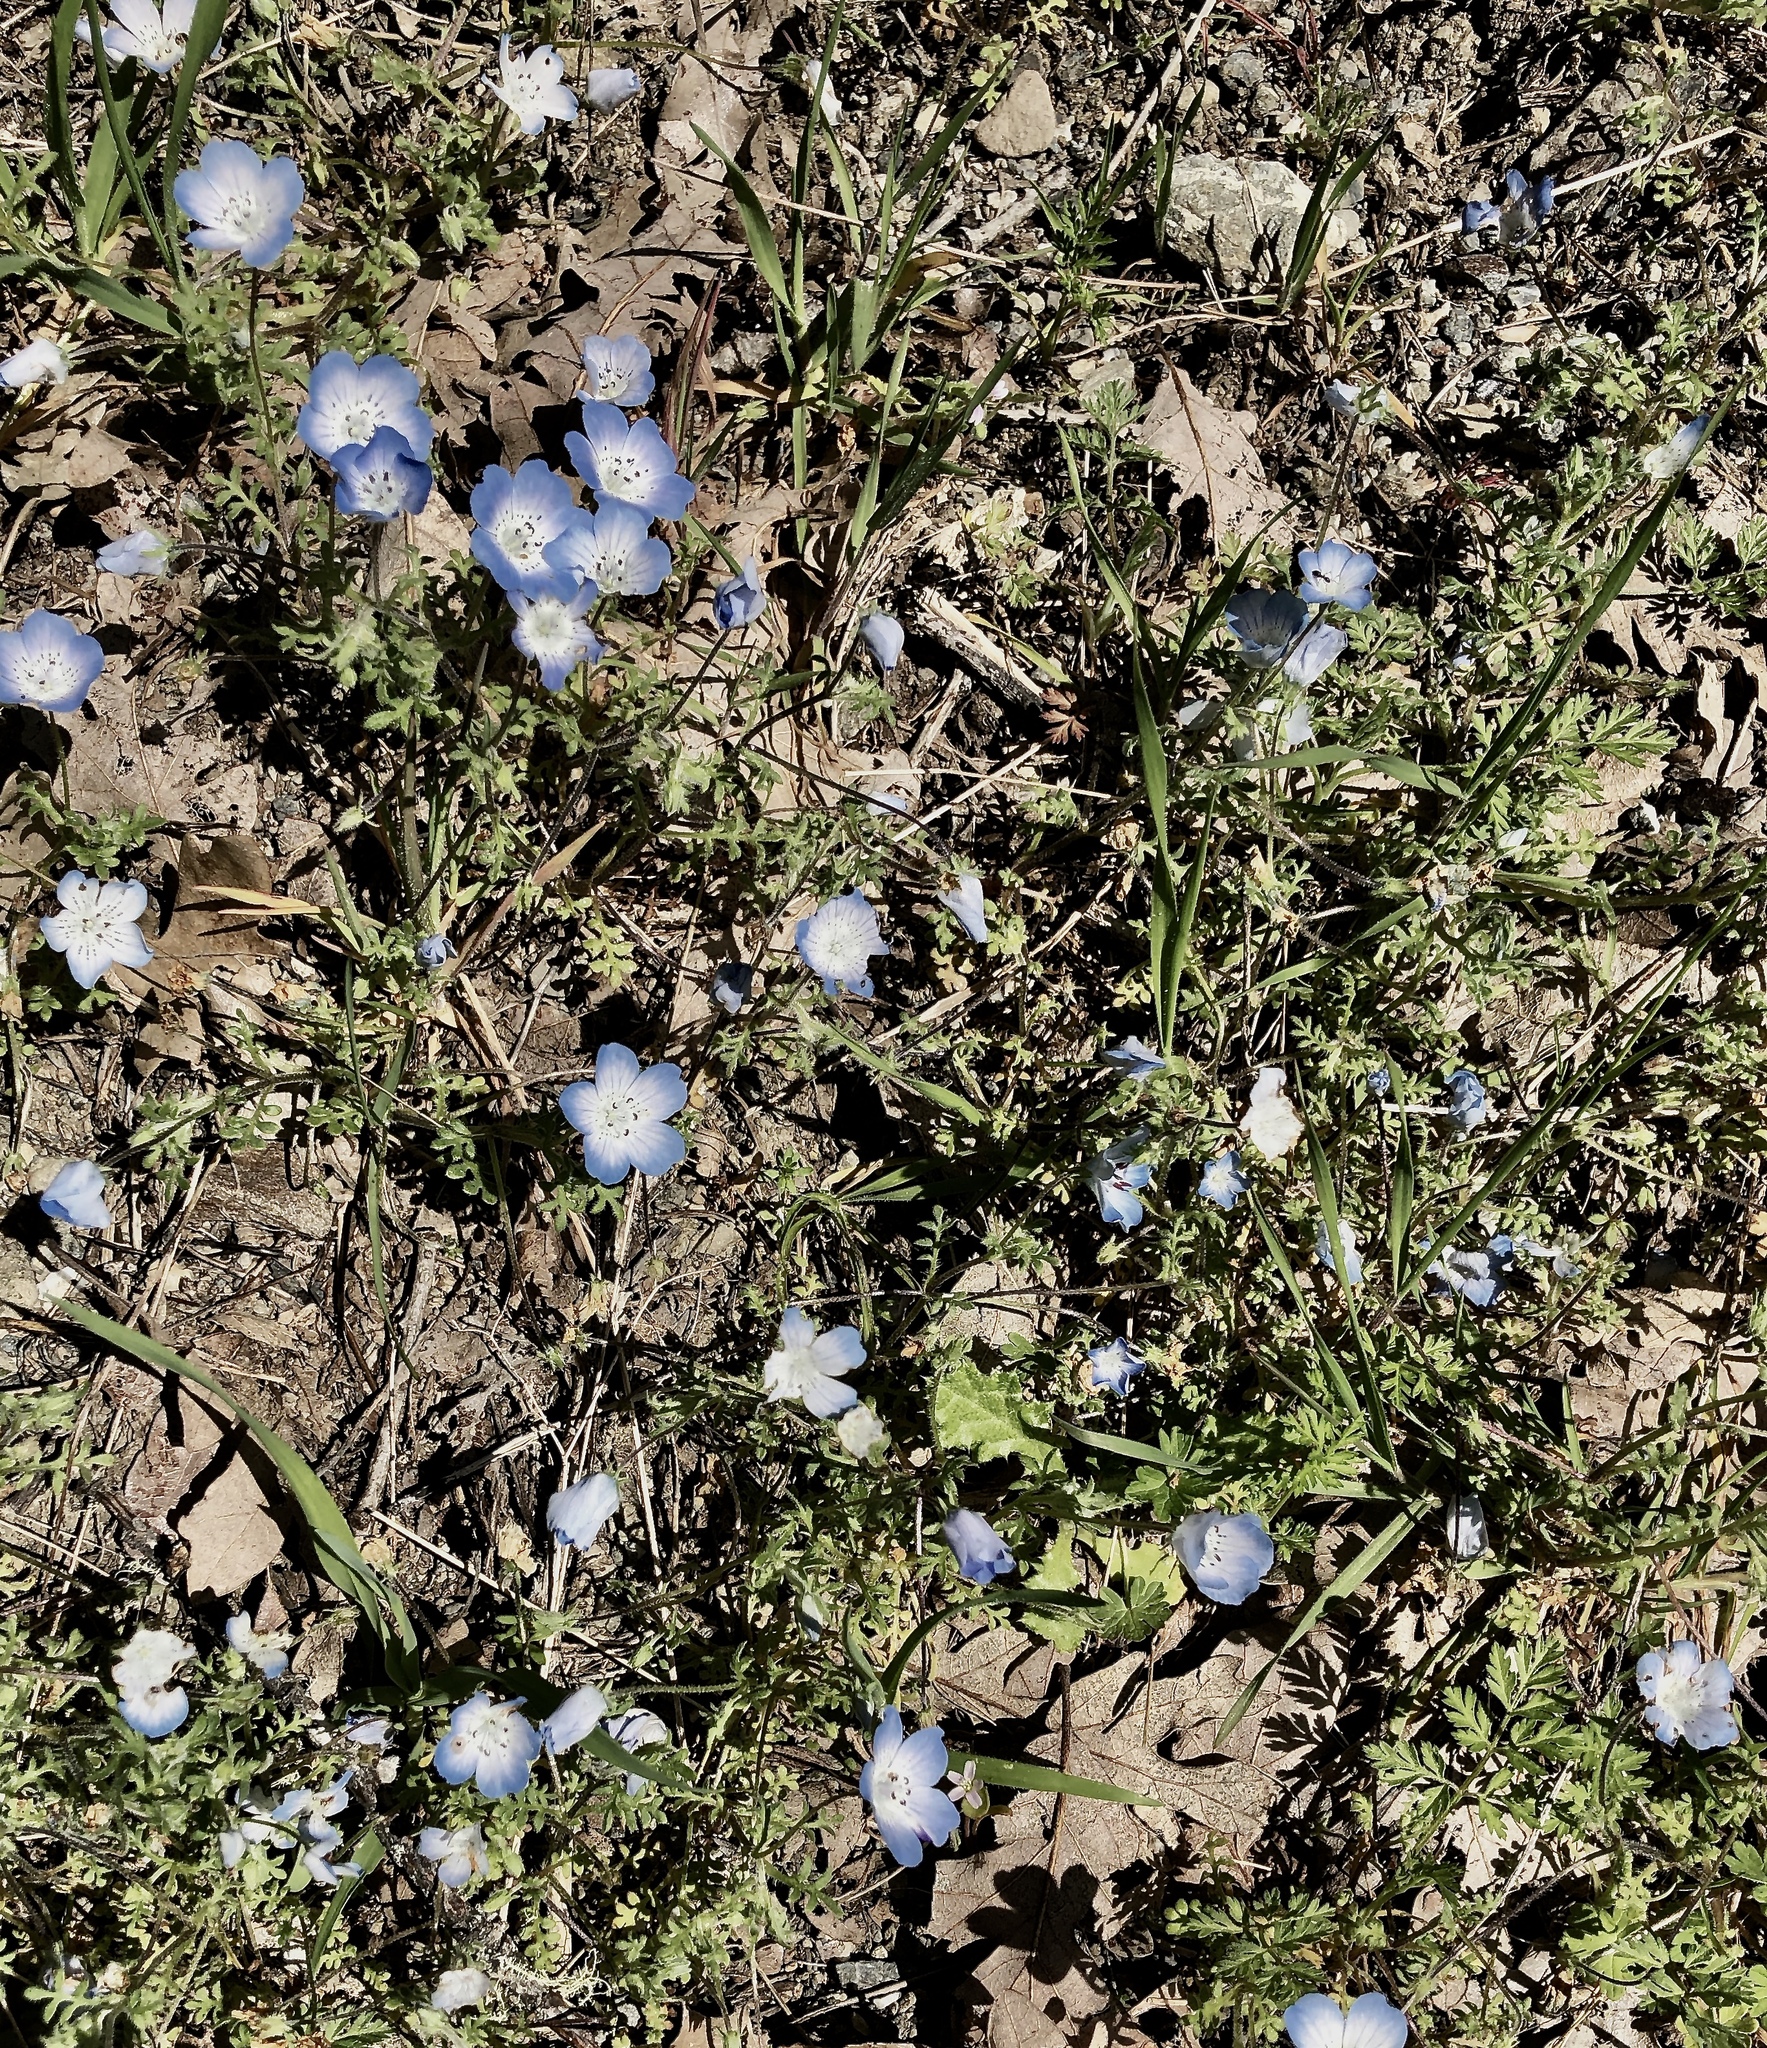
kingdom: Plantae
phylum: Tracheophyta
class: Magnoliopsida
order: Boraginales
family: Hydrophyllaceae
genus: Nemophila
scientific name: Nemophila menziesii
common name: Baby's-blue-eyes
